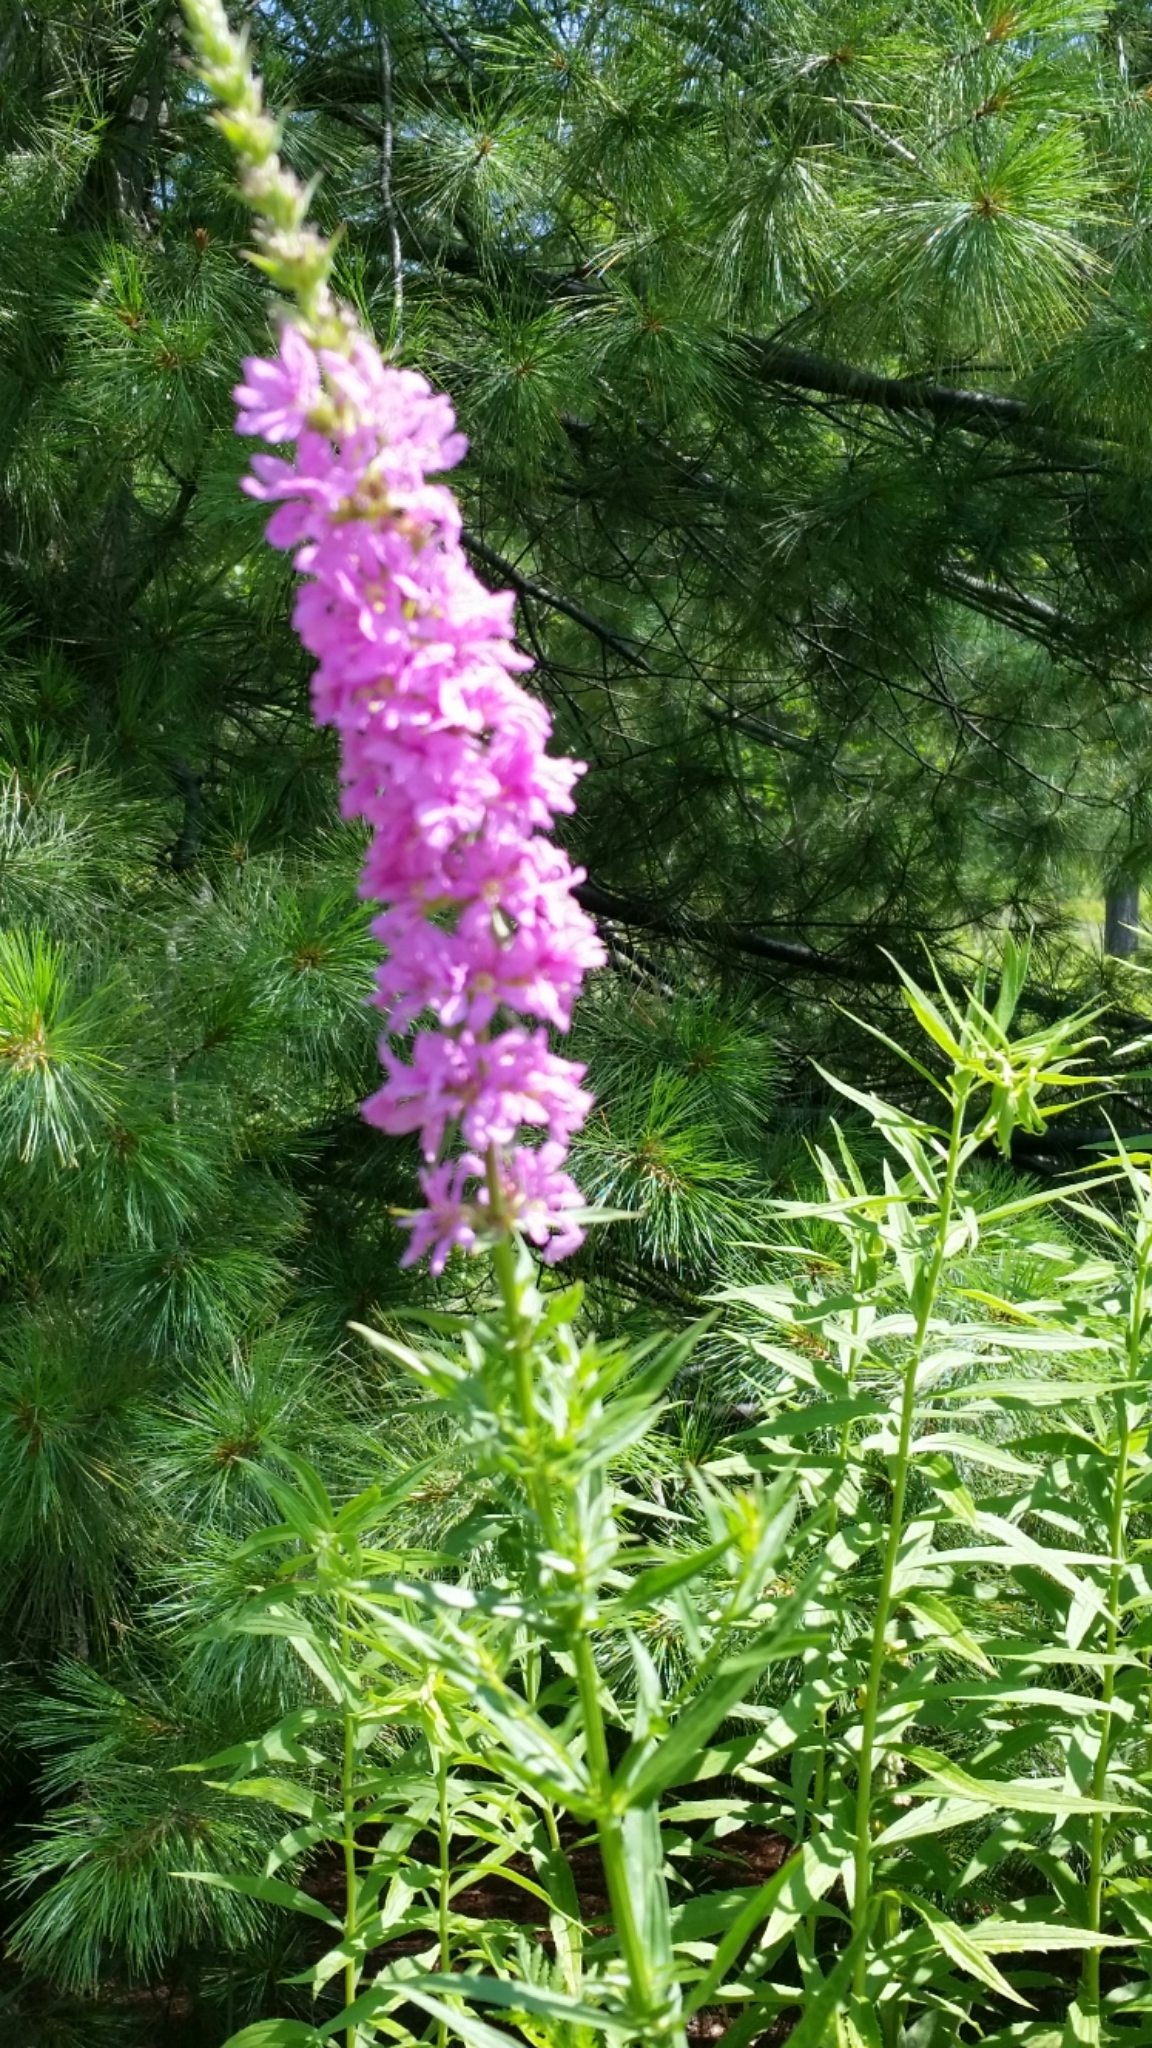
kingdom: Plantae
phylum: Tracheophyta
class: Magnoliopsida
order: Myrtales
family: Lythraceae
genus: Lythrum
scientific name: Lythrum salicaria
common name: Purple loosestrife
